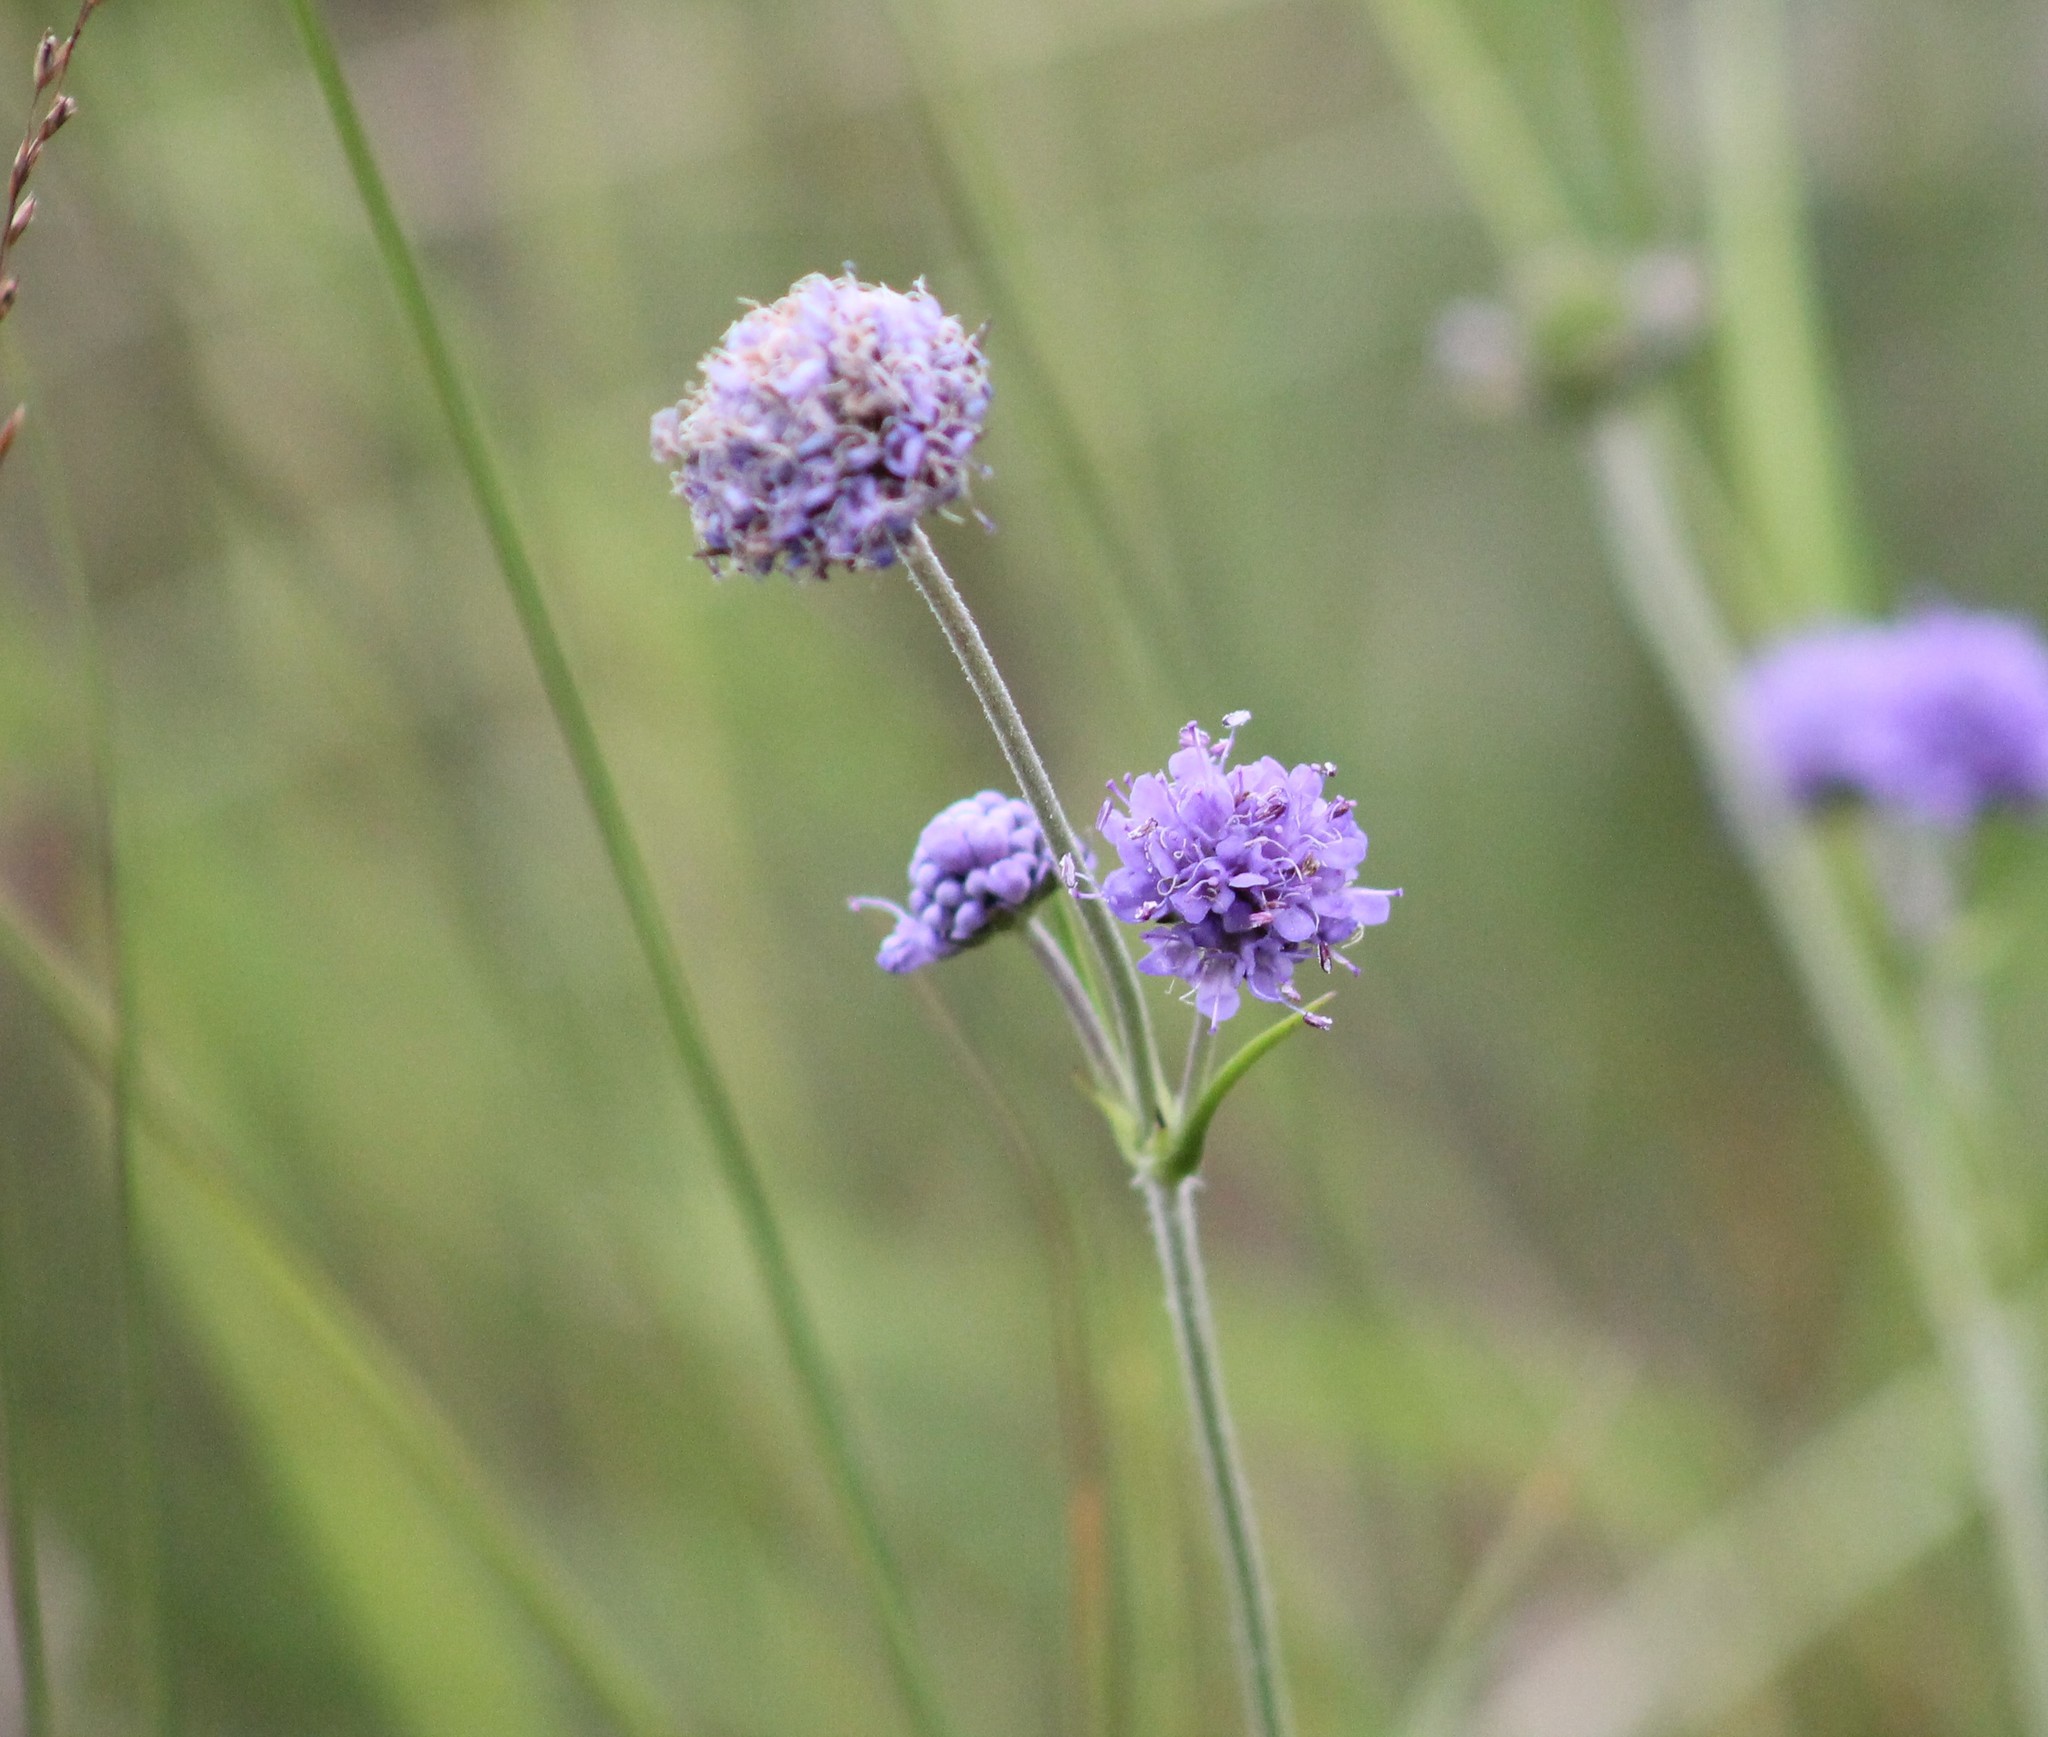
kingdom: Plantae
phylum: Tracheophyta
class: Magnoliopsida
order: Dipsacales
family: Caprifoliaceae
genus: Succisa
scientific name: Succisa pratensis
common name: Devil's-bit
